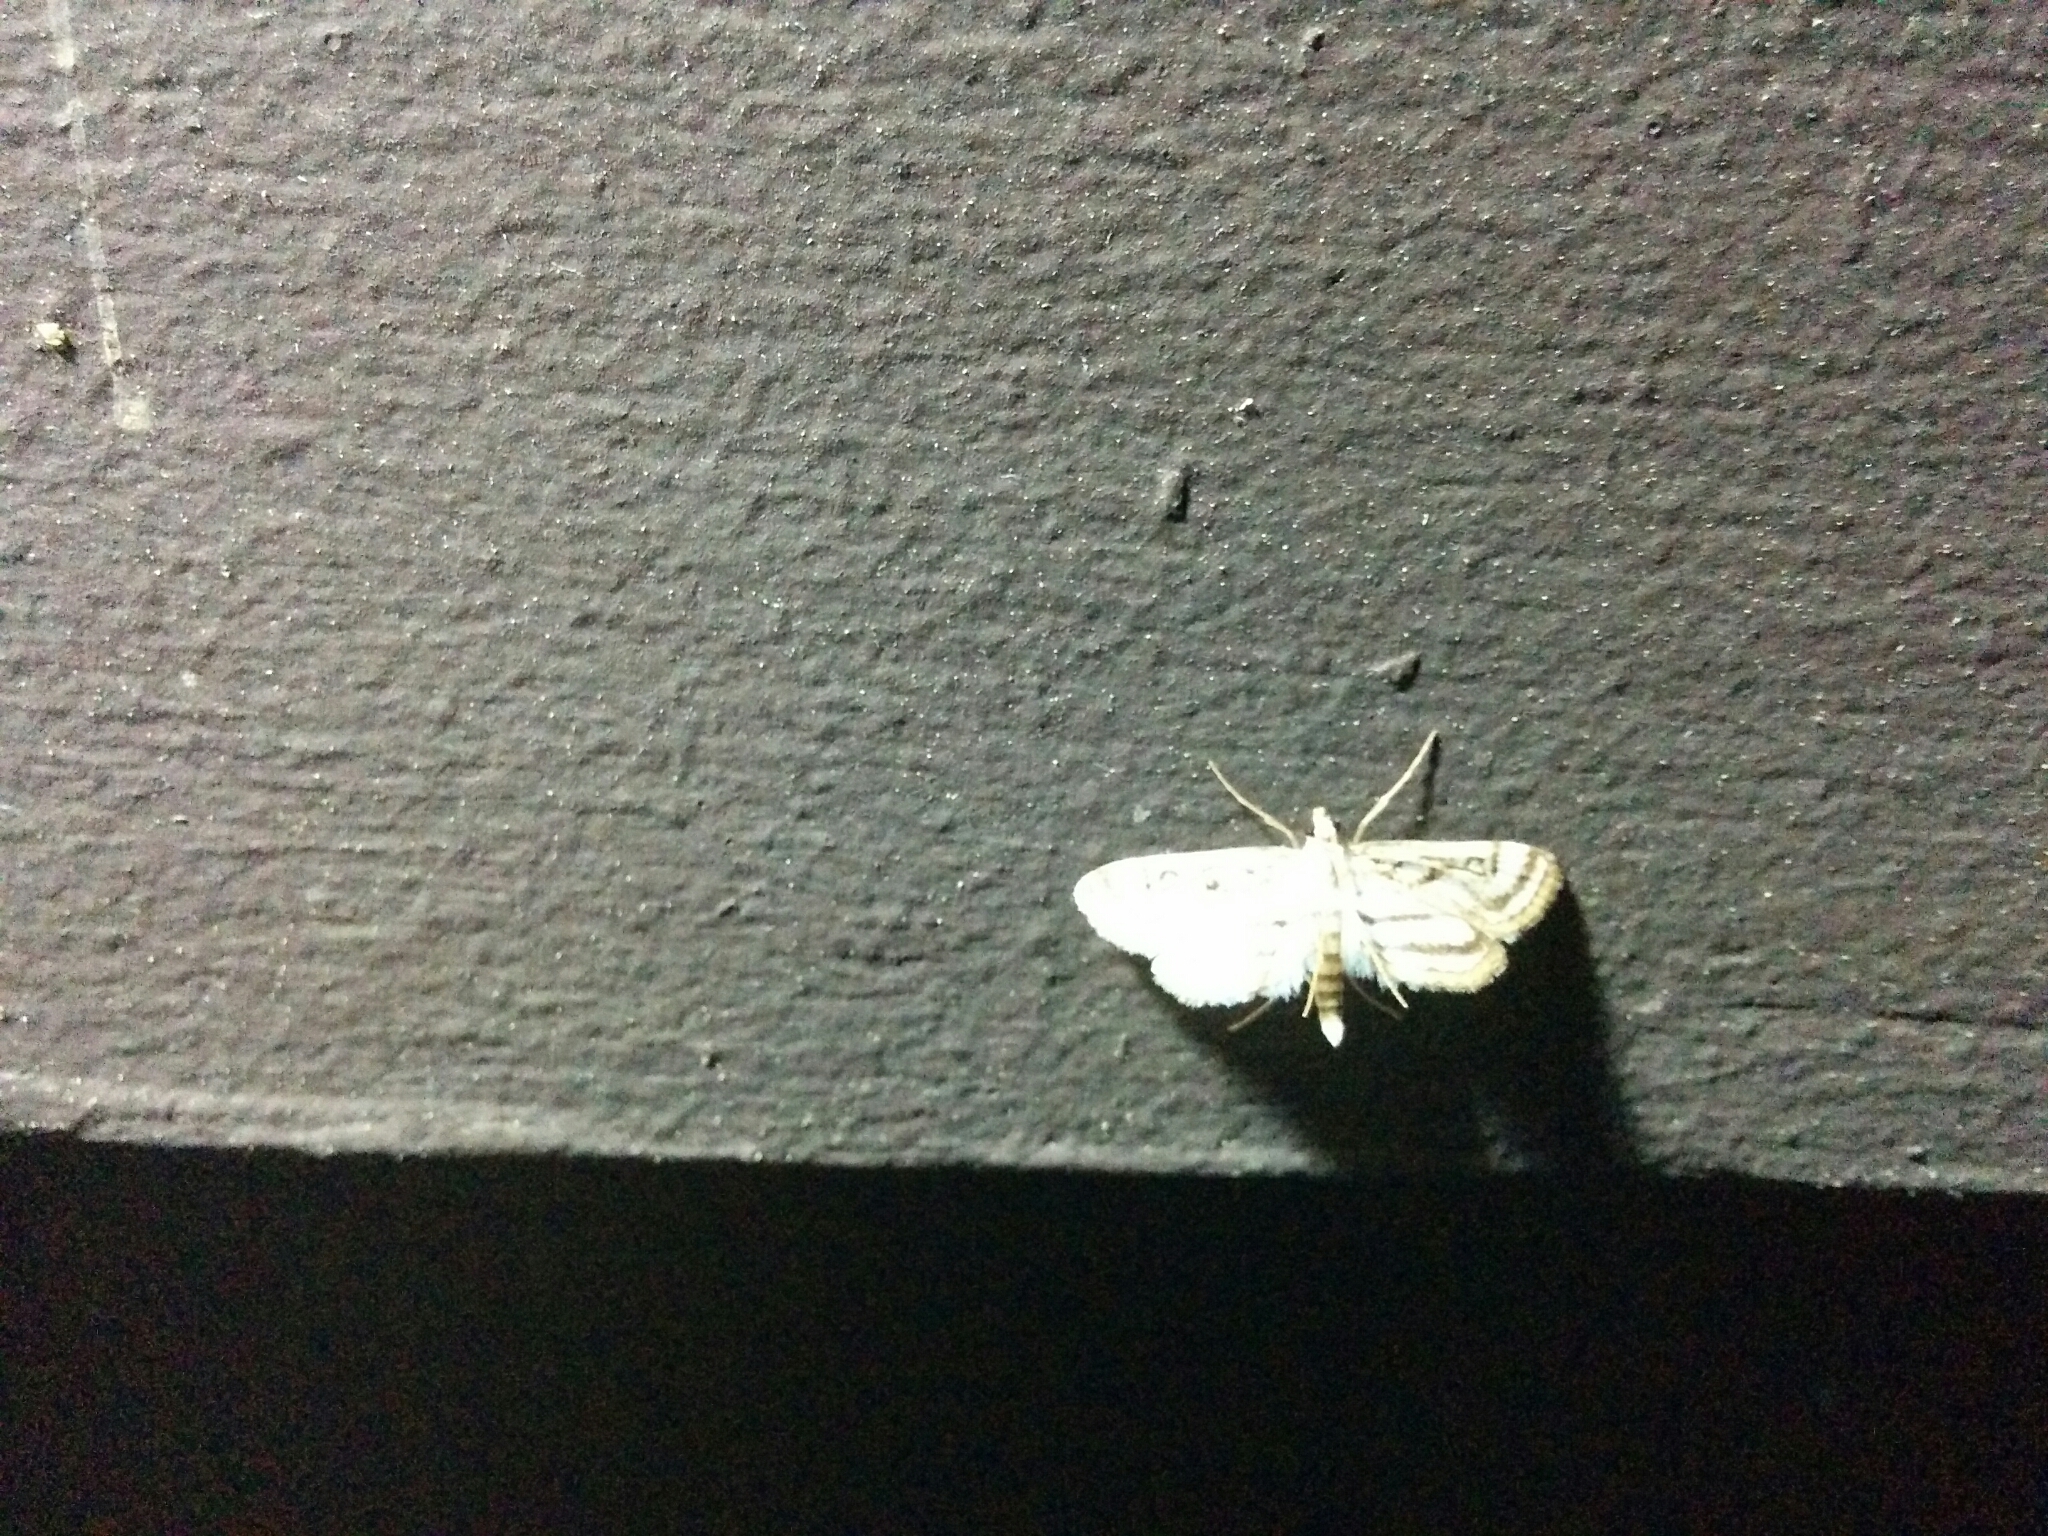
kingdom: Animalia
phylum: Arthropoda
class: Insecta
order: Lepidoptera
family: Crambidae
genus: Parapoynx
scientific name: Parapoynx badiusalis
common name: Chestnut-marked pondweed moth
